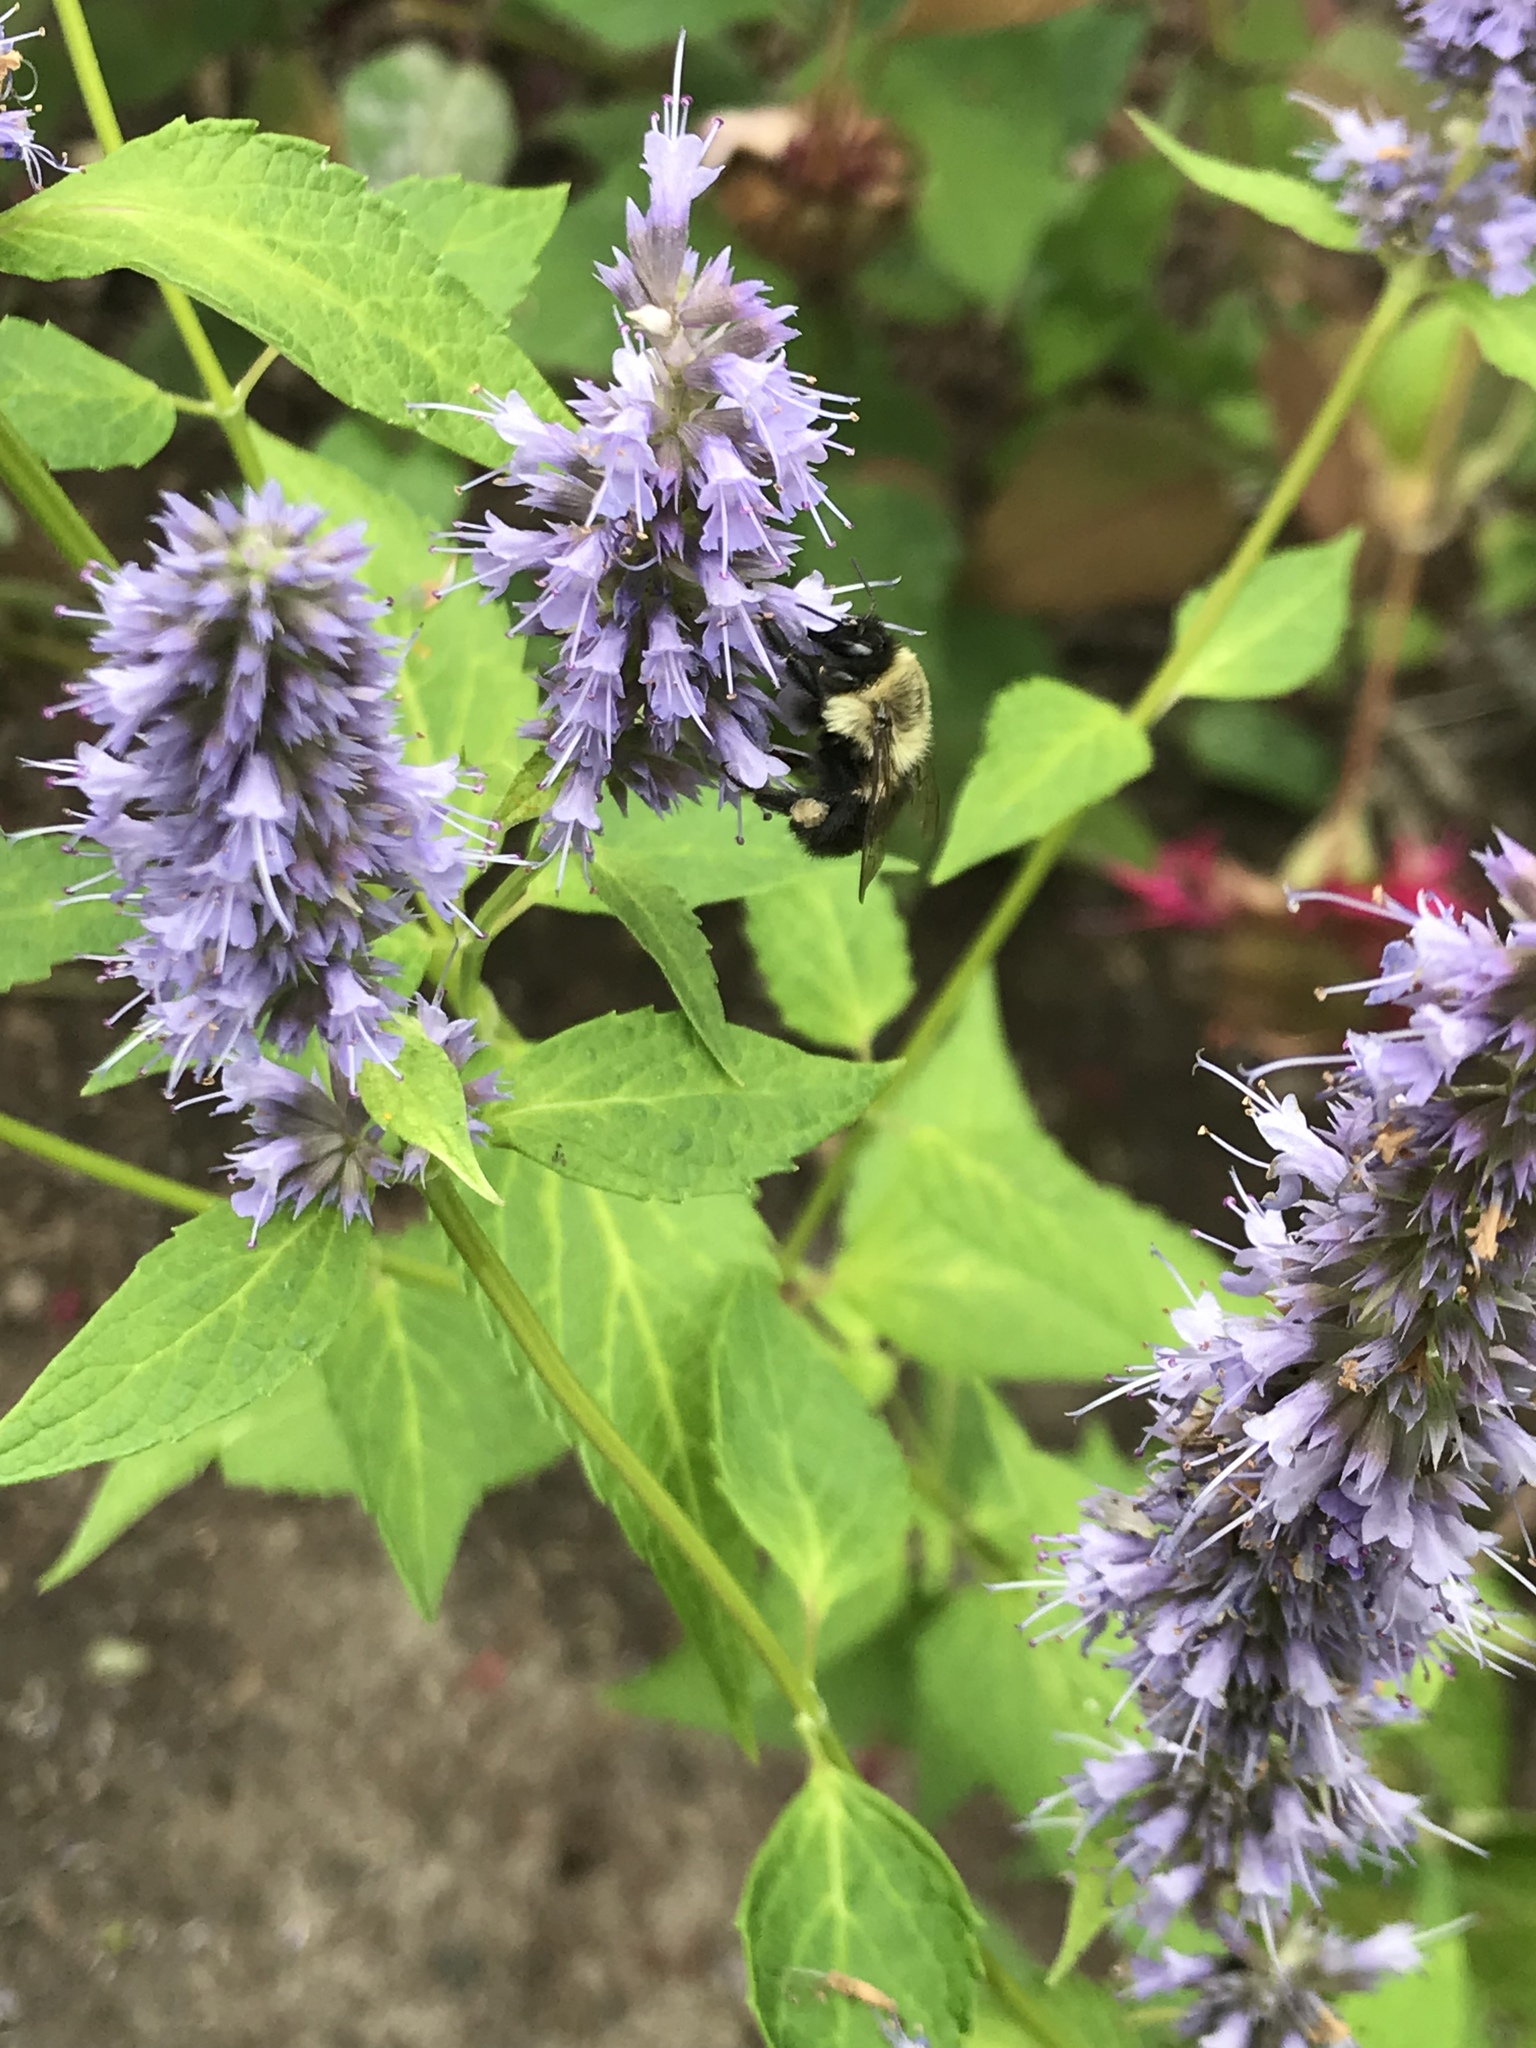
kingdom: Animalia
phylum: Arthropoda
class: Insecta
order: Hymenoptera
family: Apidae
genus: Bombus
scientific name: Bombus impatiens
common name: Common eastern bumble bee
